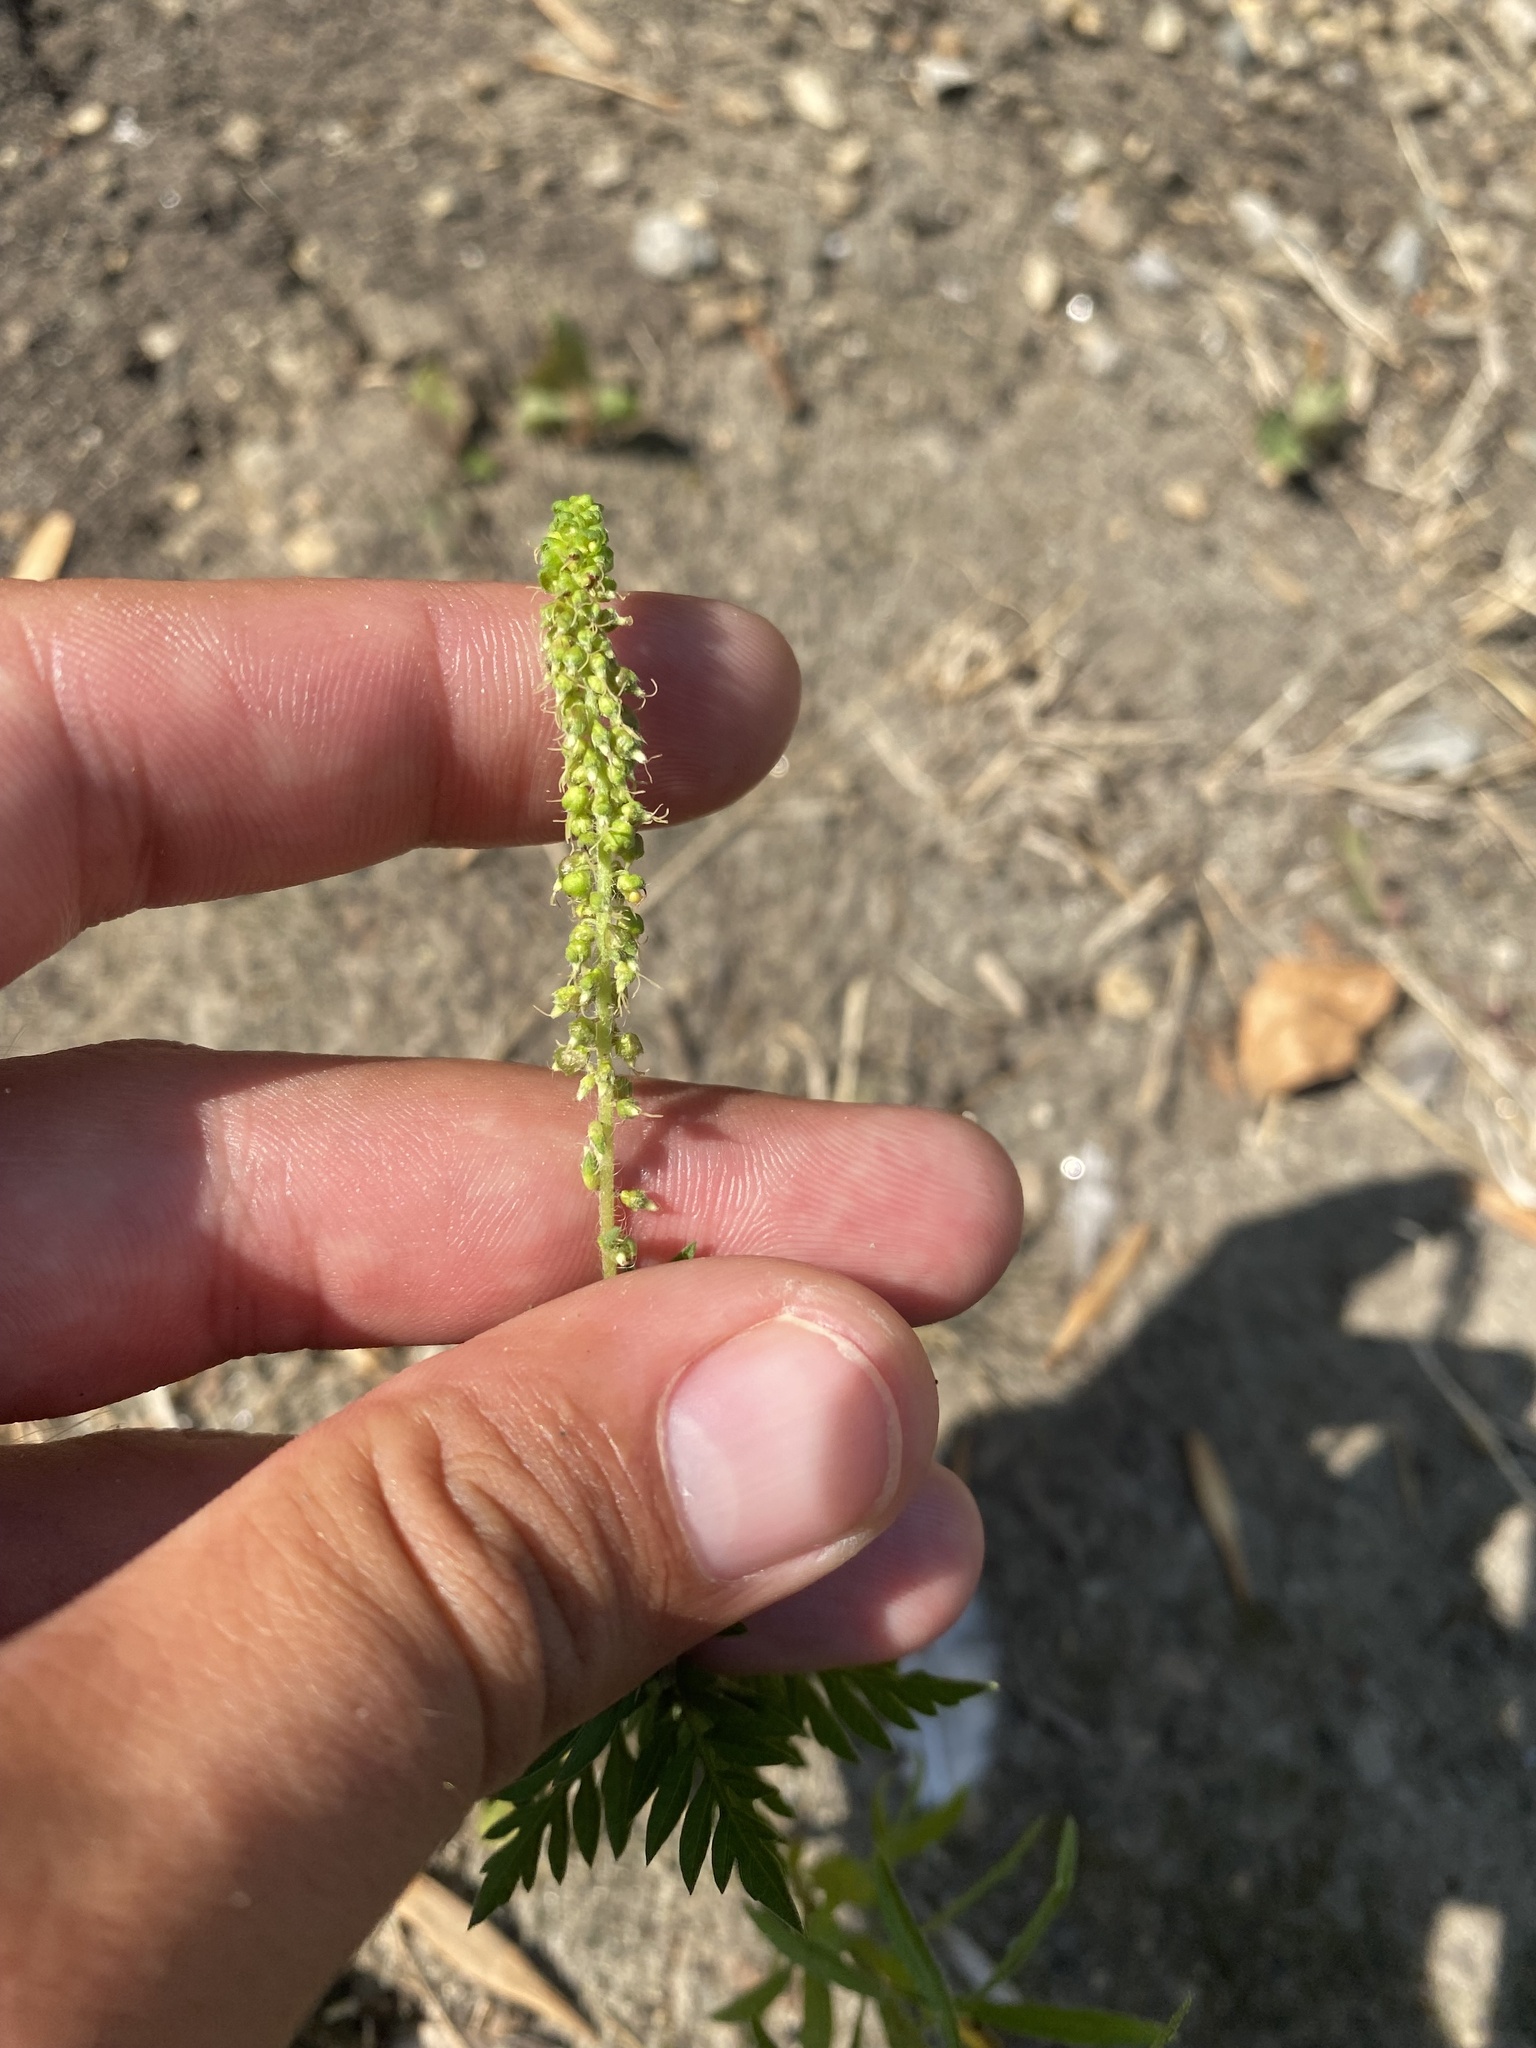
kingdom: Plantae
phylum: Tracheophyta
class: Magnoliopsida
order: Asterales
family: Asteraceae
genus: Ambrosia
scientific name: Ambrosia artemisiifolia
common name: Annual ragweed
